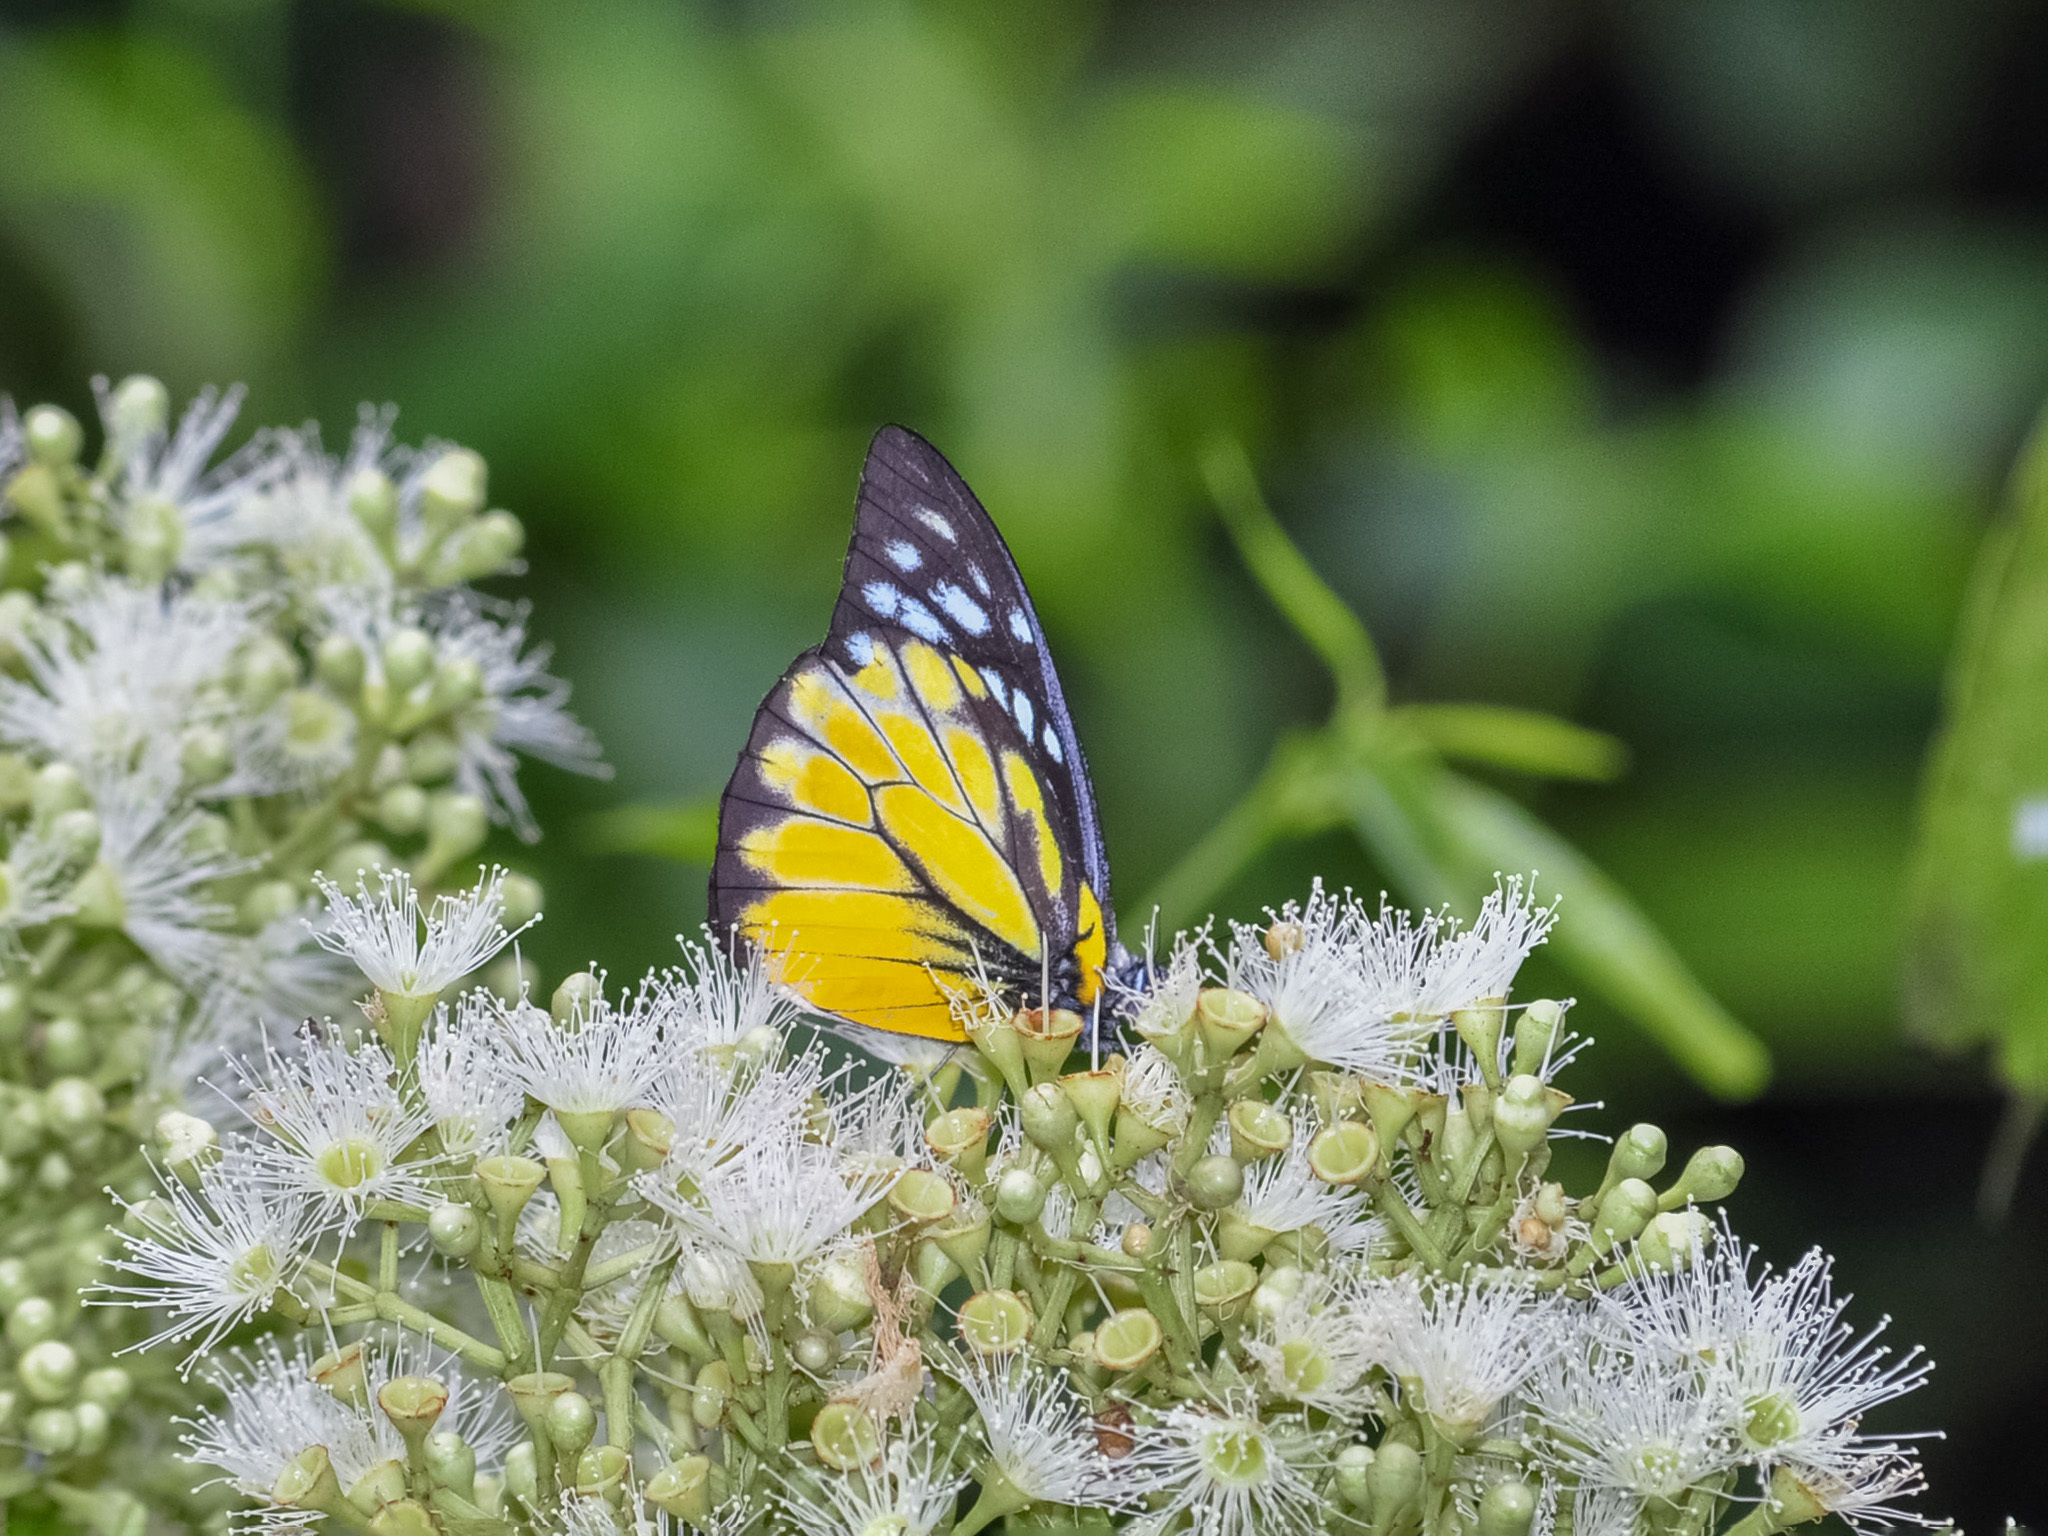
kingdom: Animalia
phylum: Arthropoda
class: Insecta
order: Lepidoptera
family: Pieridae
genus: Prioneris
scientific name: Prioneris thestylis
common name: Spotted sawtooth
